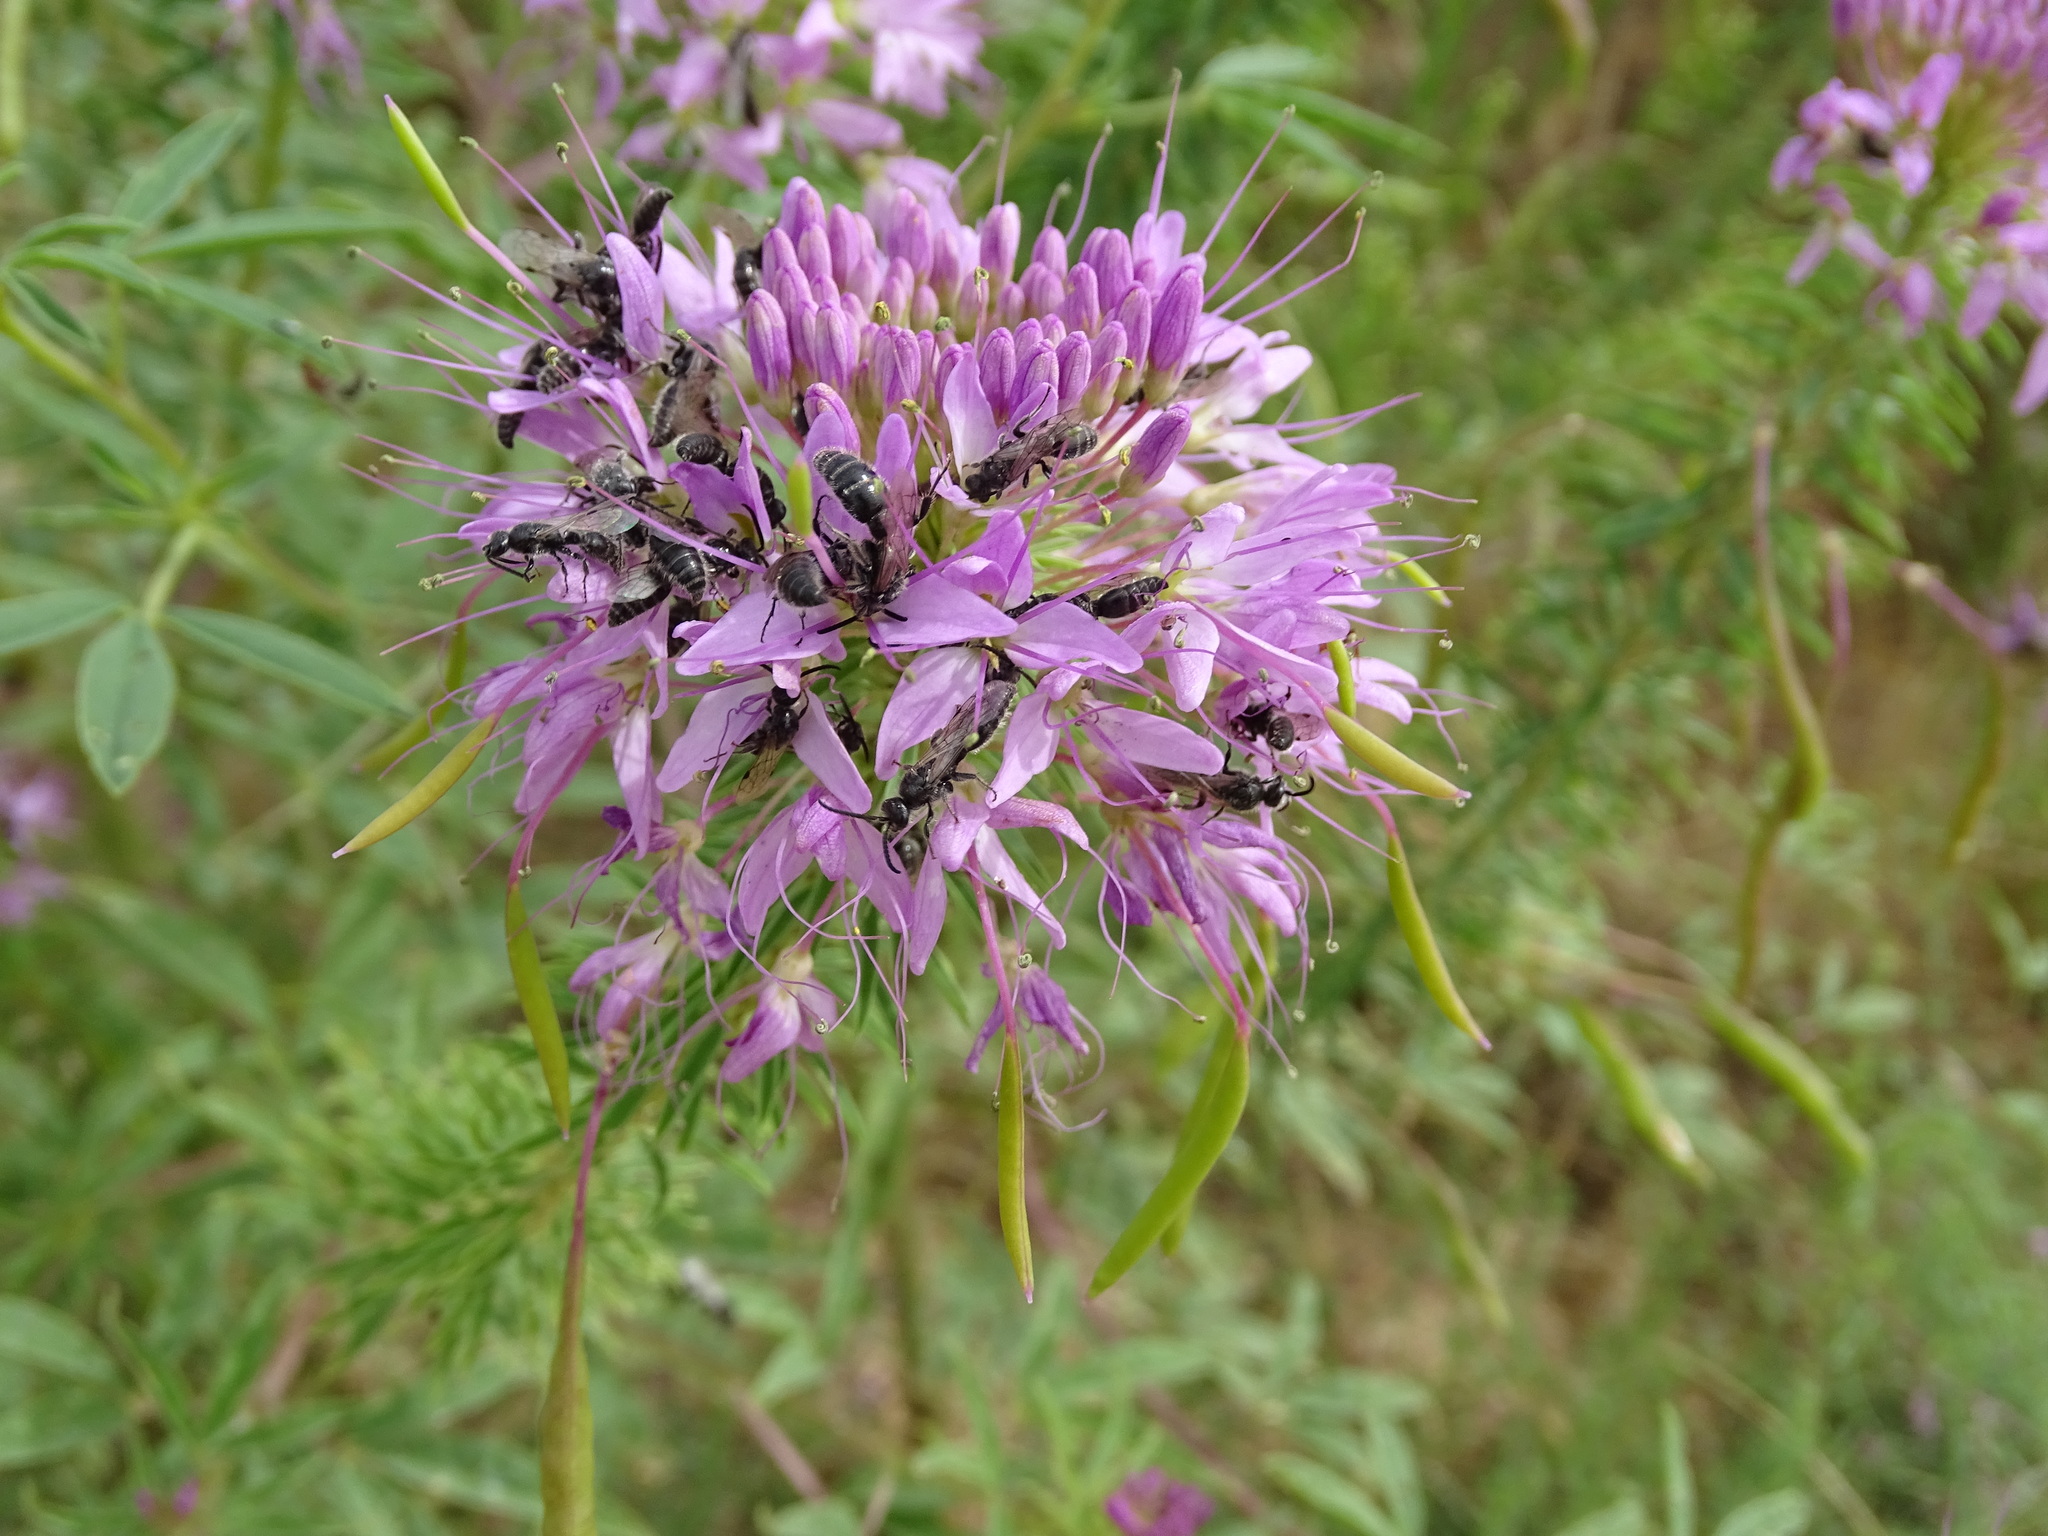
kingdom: Animalia
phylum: Arthropoda
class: Insecta
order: Hymenoptera
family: Tiphiidae
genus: Paratiphia
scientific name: Paratiphia
